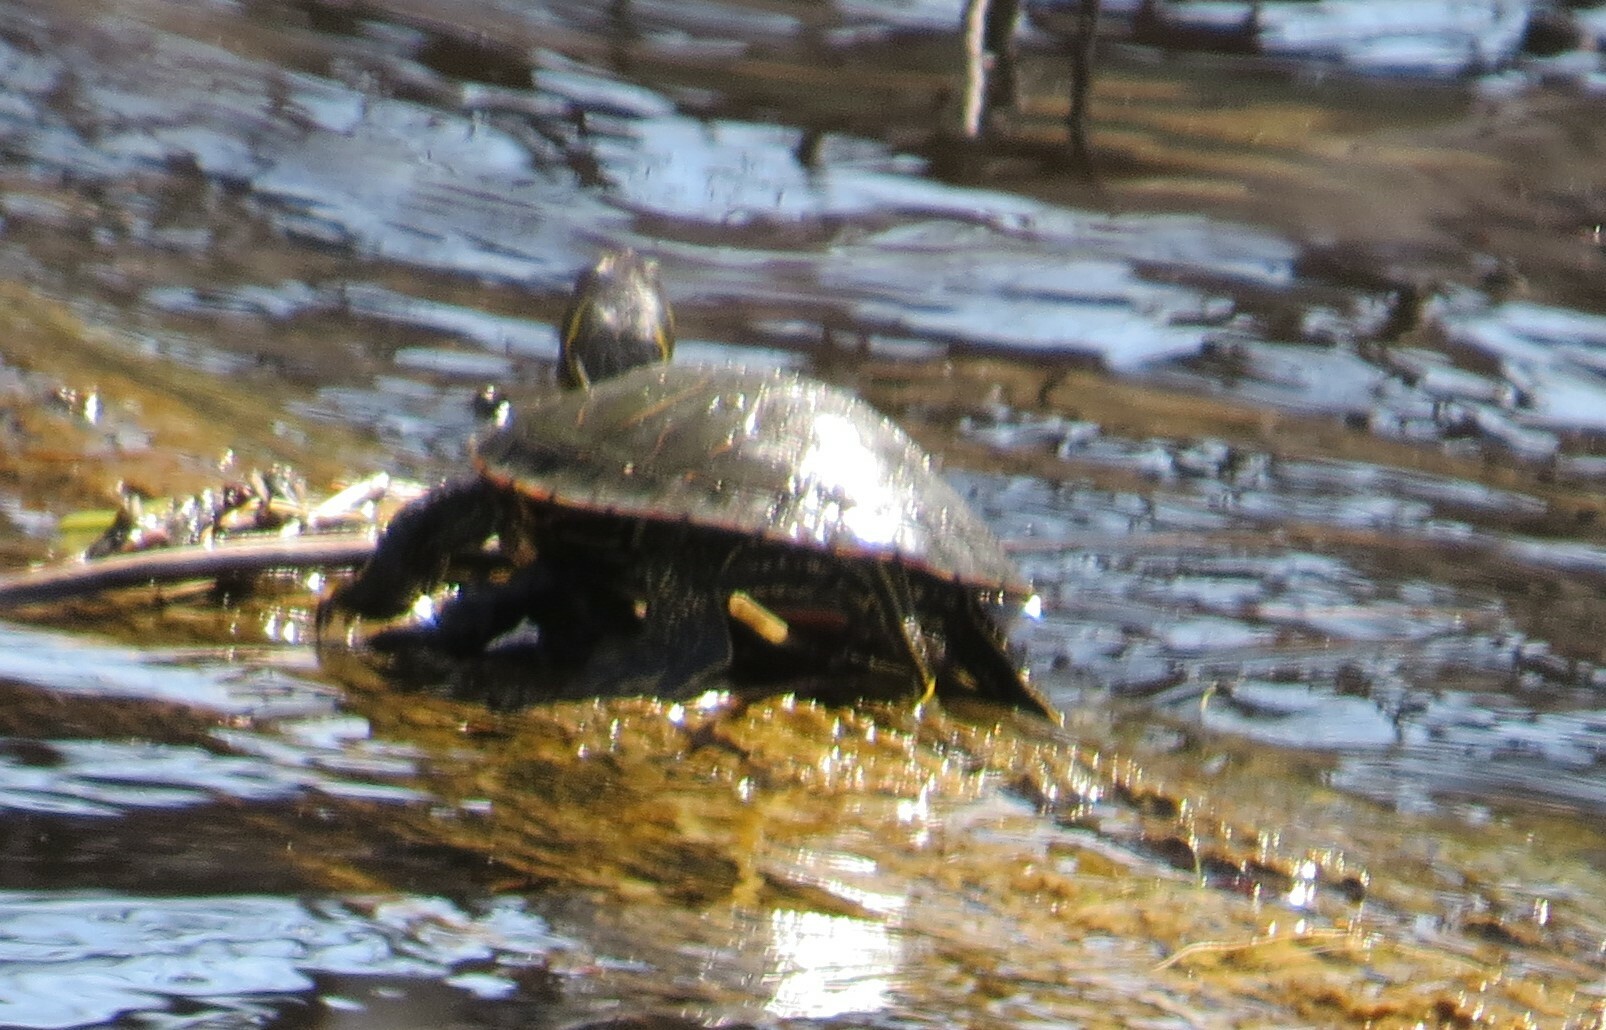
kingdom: Animalia
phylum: Chordata
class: Testudines
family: Emydidae
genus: Chrysemys
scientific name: Chrysemys picta
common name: Painted turtle
